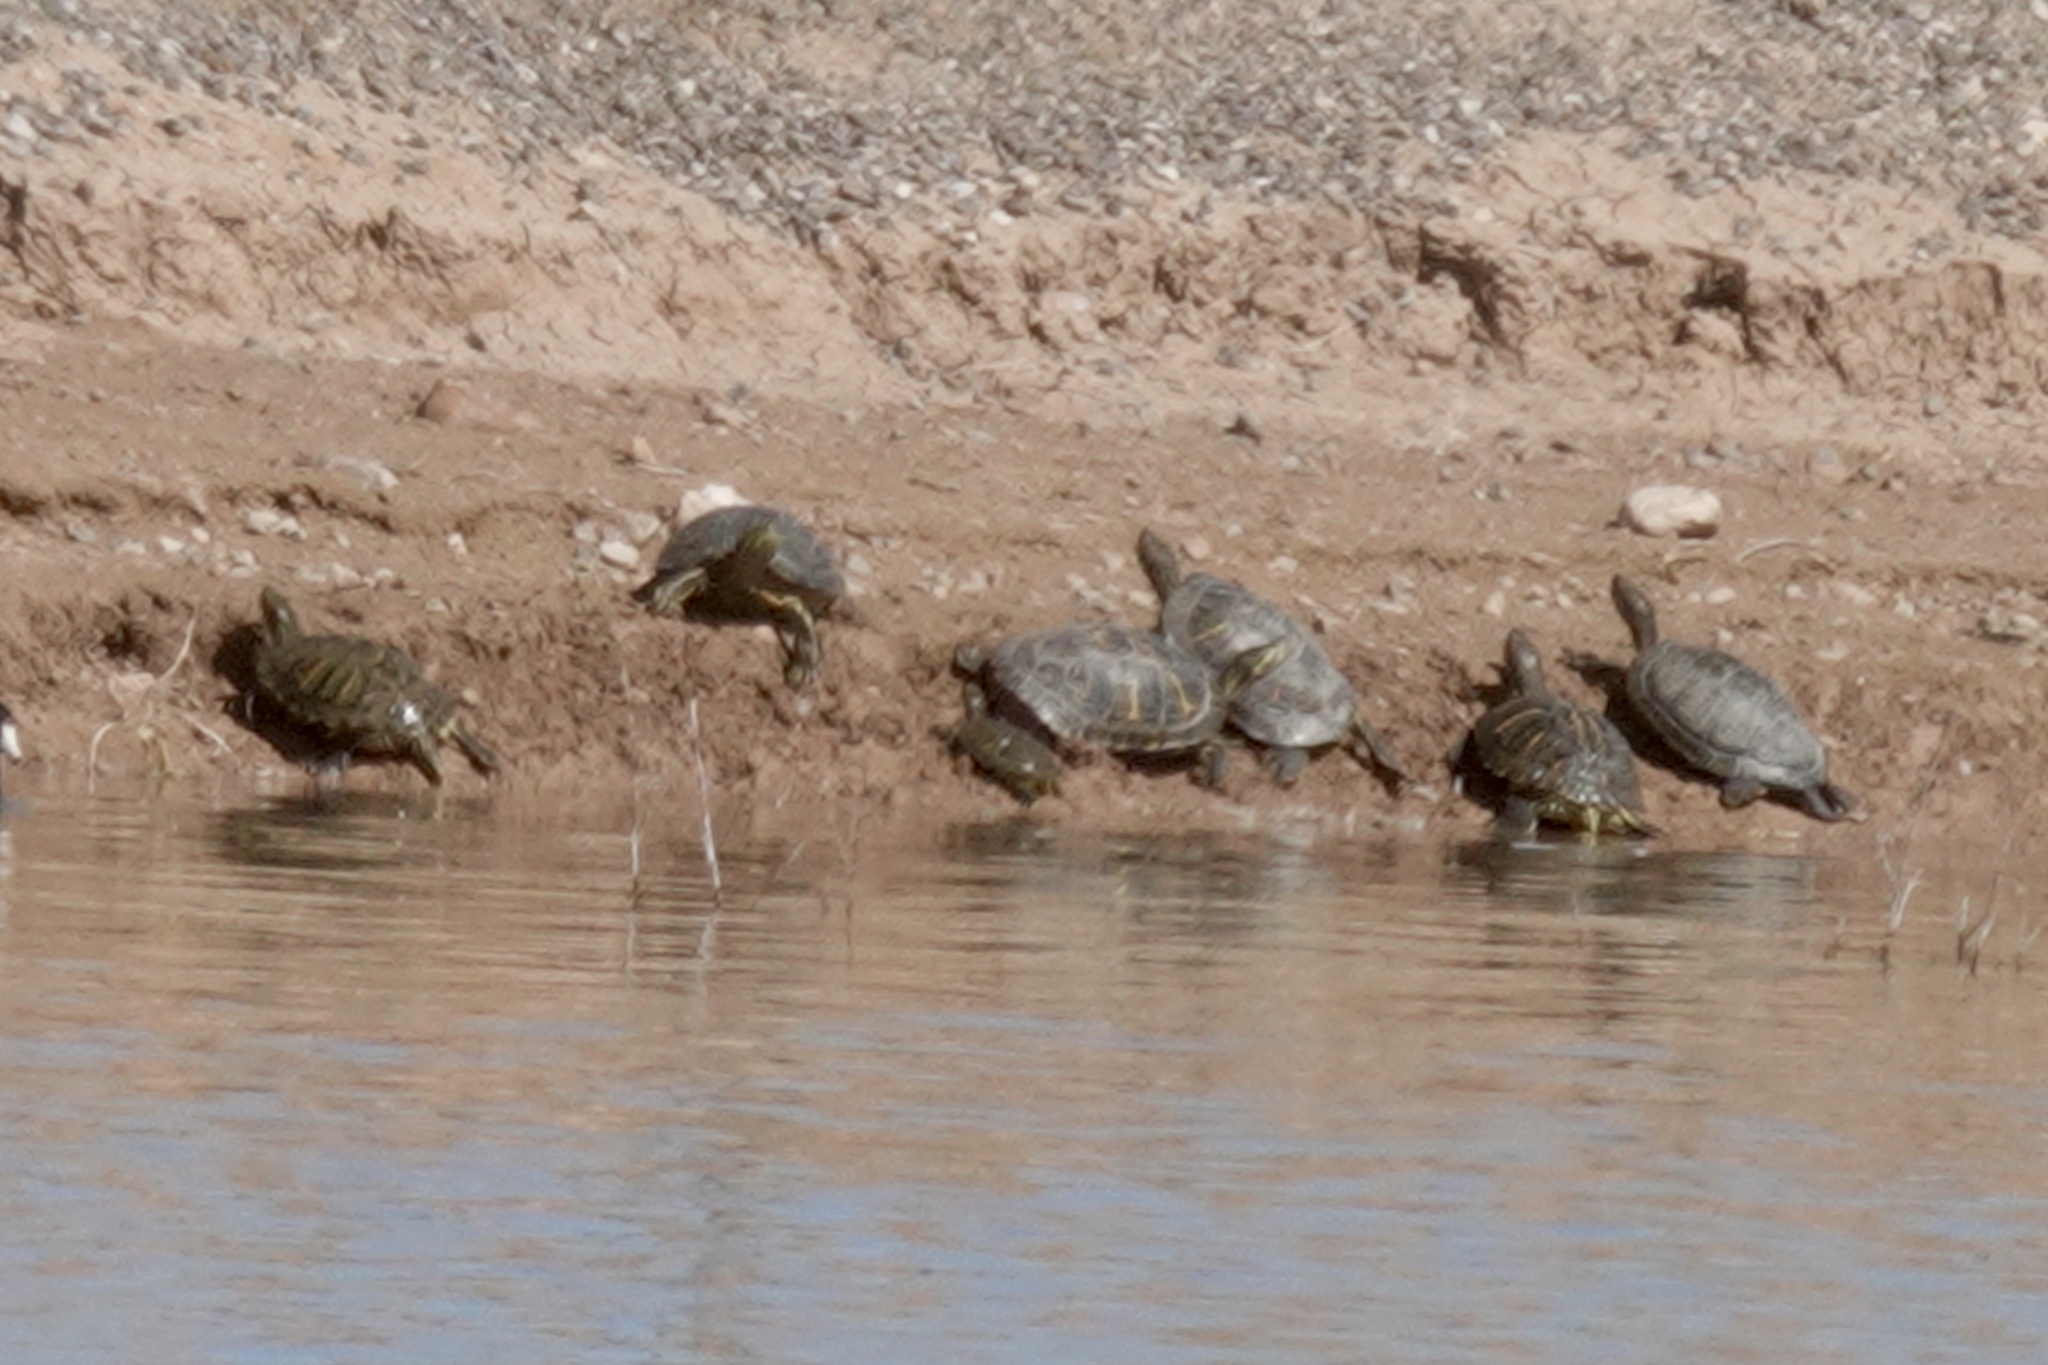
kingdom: Animalia
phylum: Chordata
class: Testudines
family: Emydidae
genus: Trachemys
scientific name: Trachemys scripta
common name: Slider
